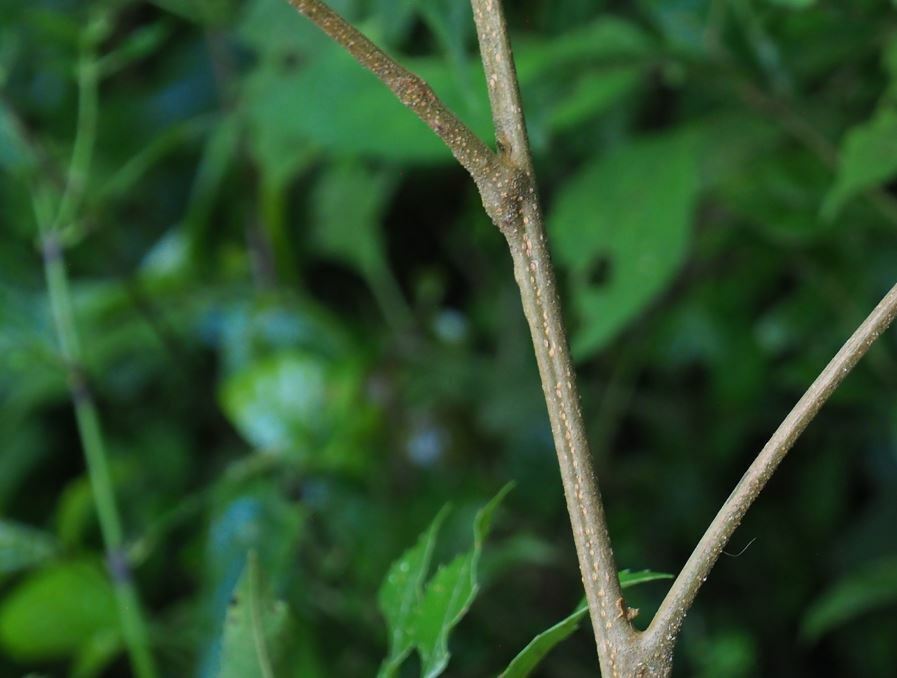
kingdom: Plantae
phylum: Tracheophyta
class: Magnoliopsida
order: Sapindales
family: Sapindaceae
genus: Plagioscyphus
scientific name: Plagioscyphus stelechanthus
